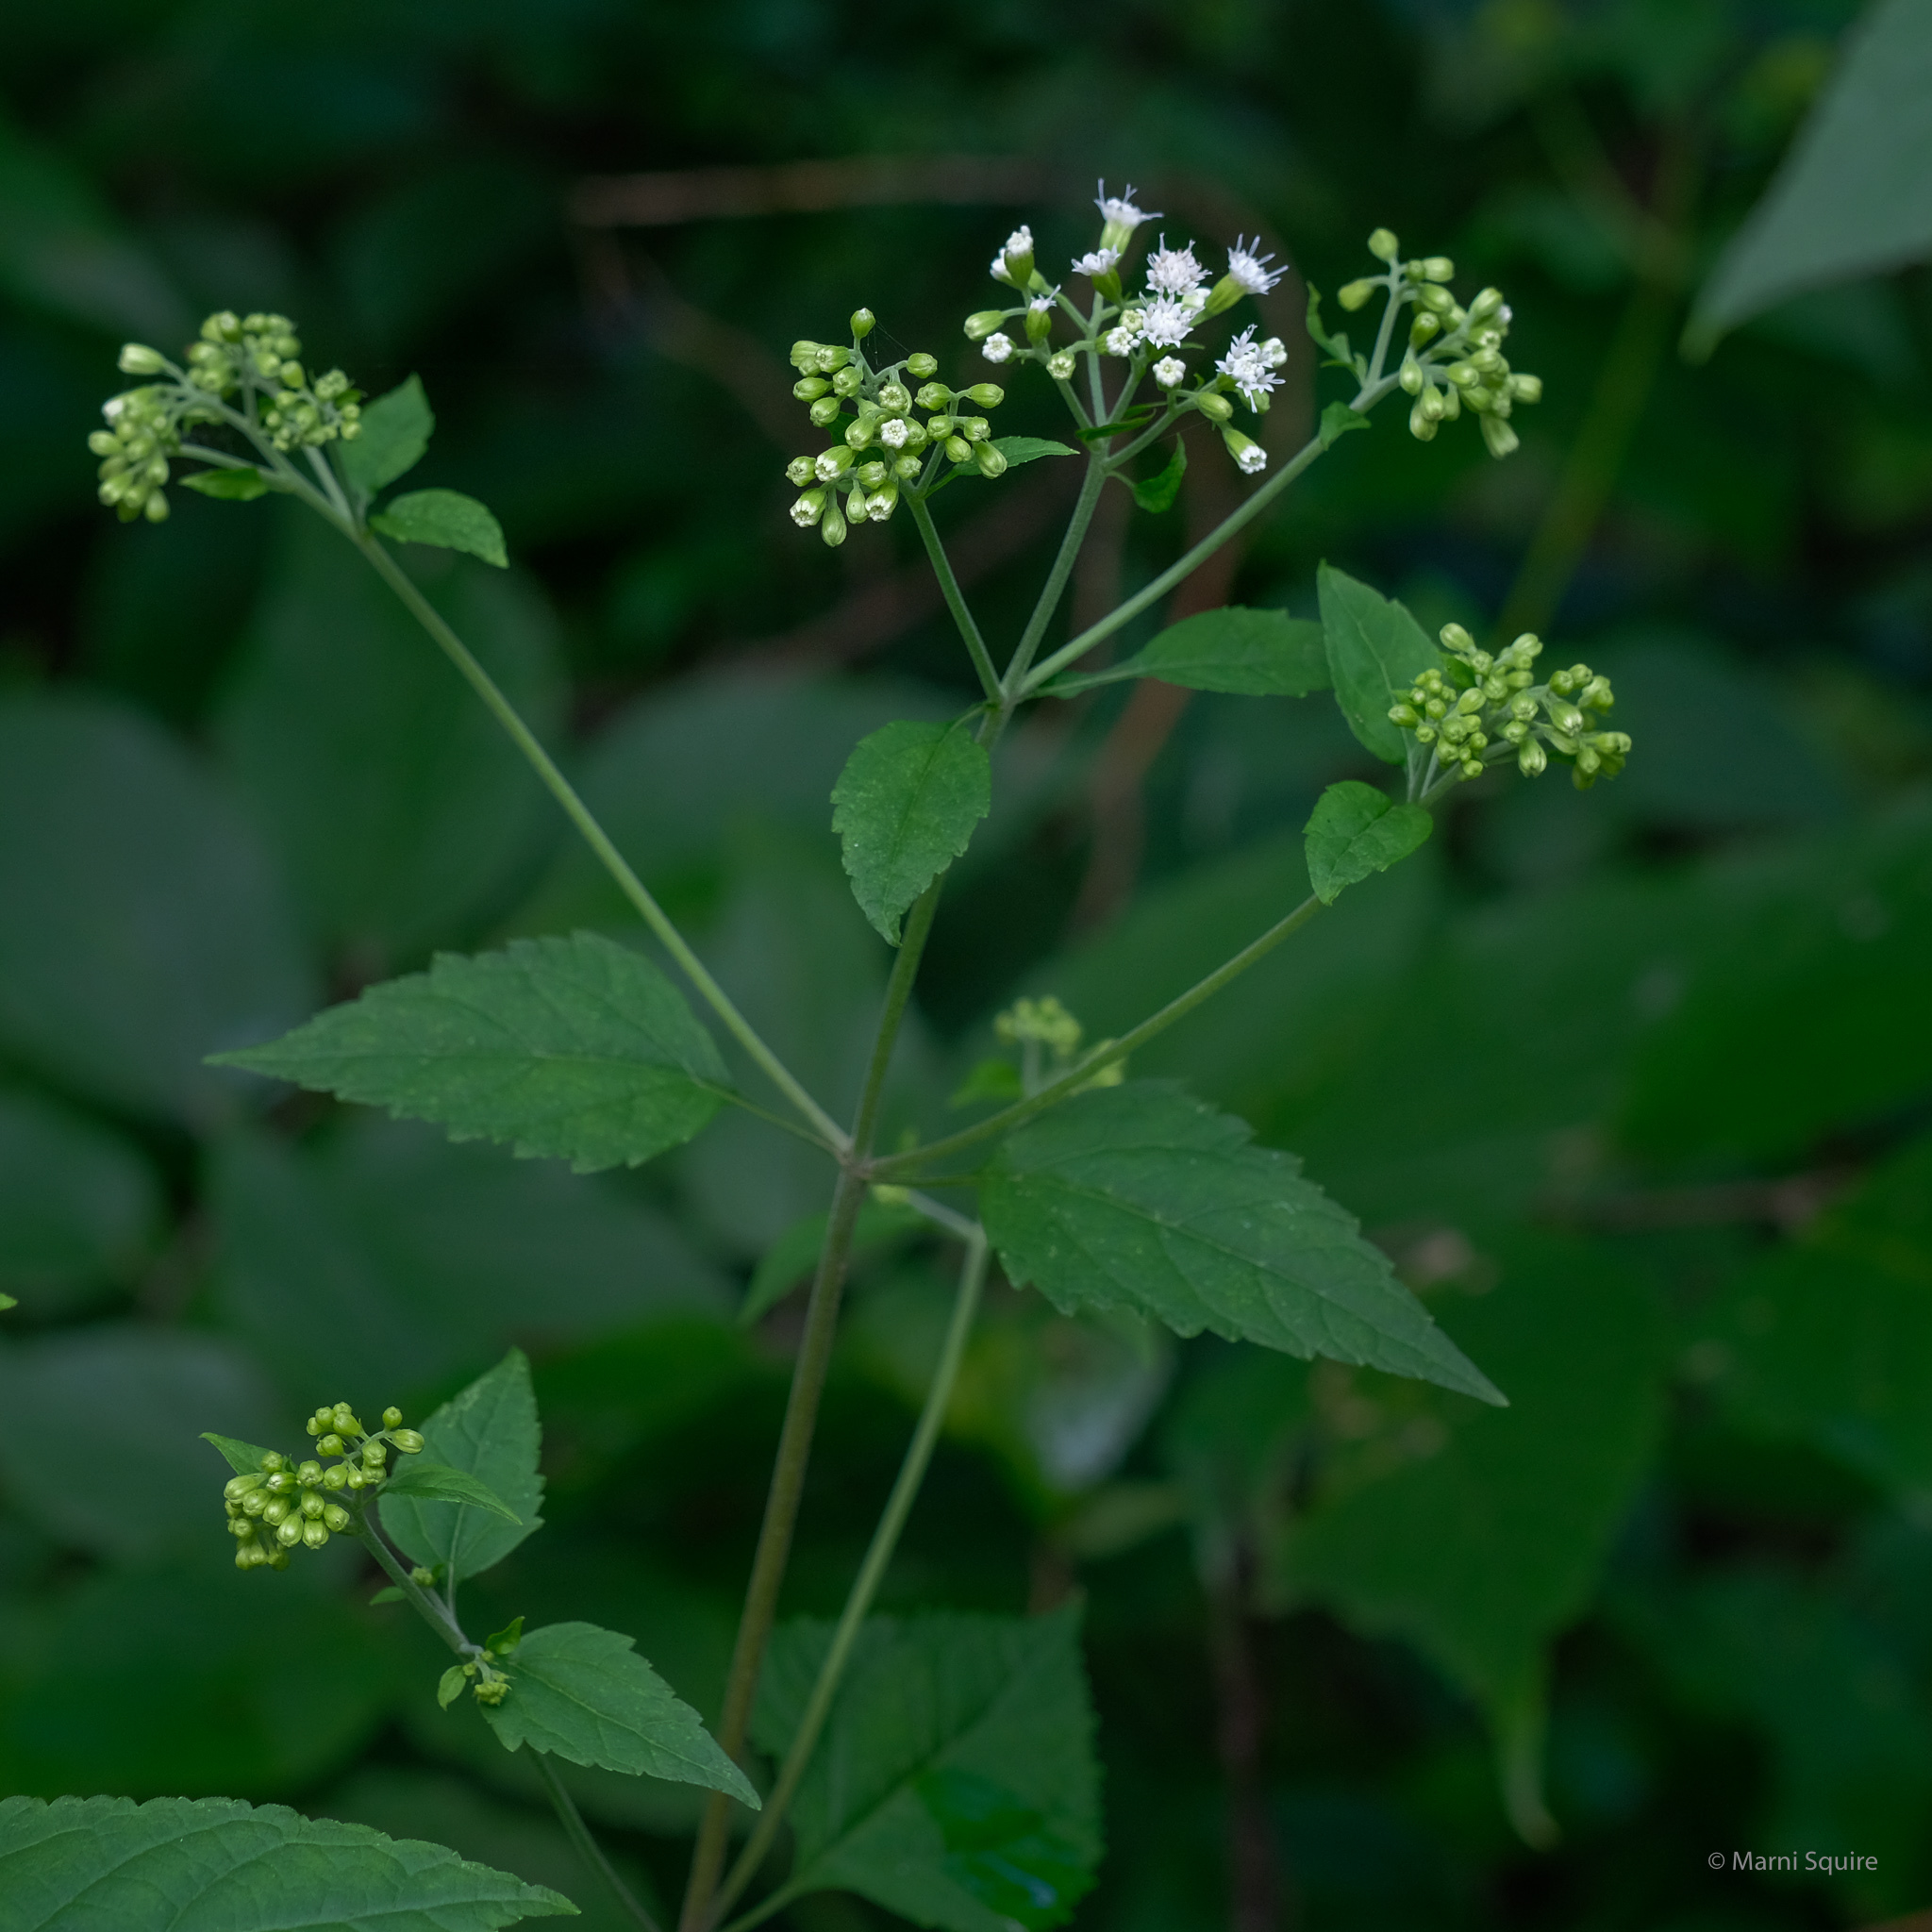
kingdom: Plantae
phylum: Tracheophyta
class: Magnoliopsida
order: Asterales
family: Asteraceae
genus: Ageratina
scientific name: Ageratina altissima
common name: White snakeroot
